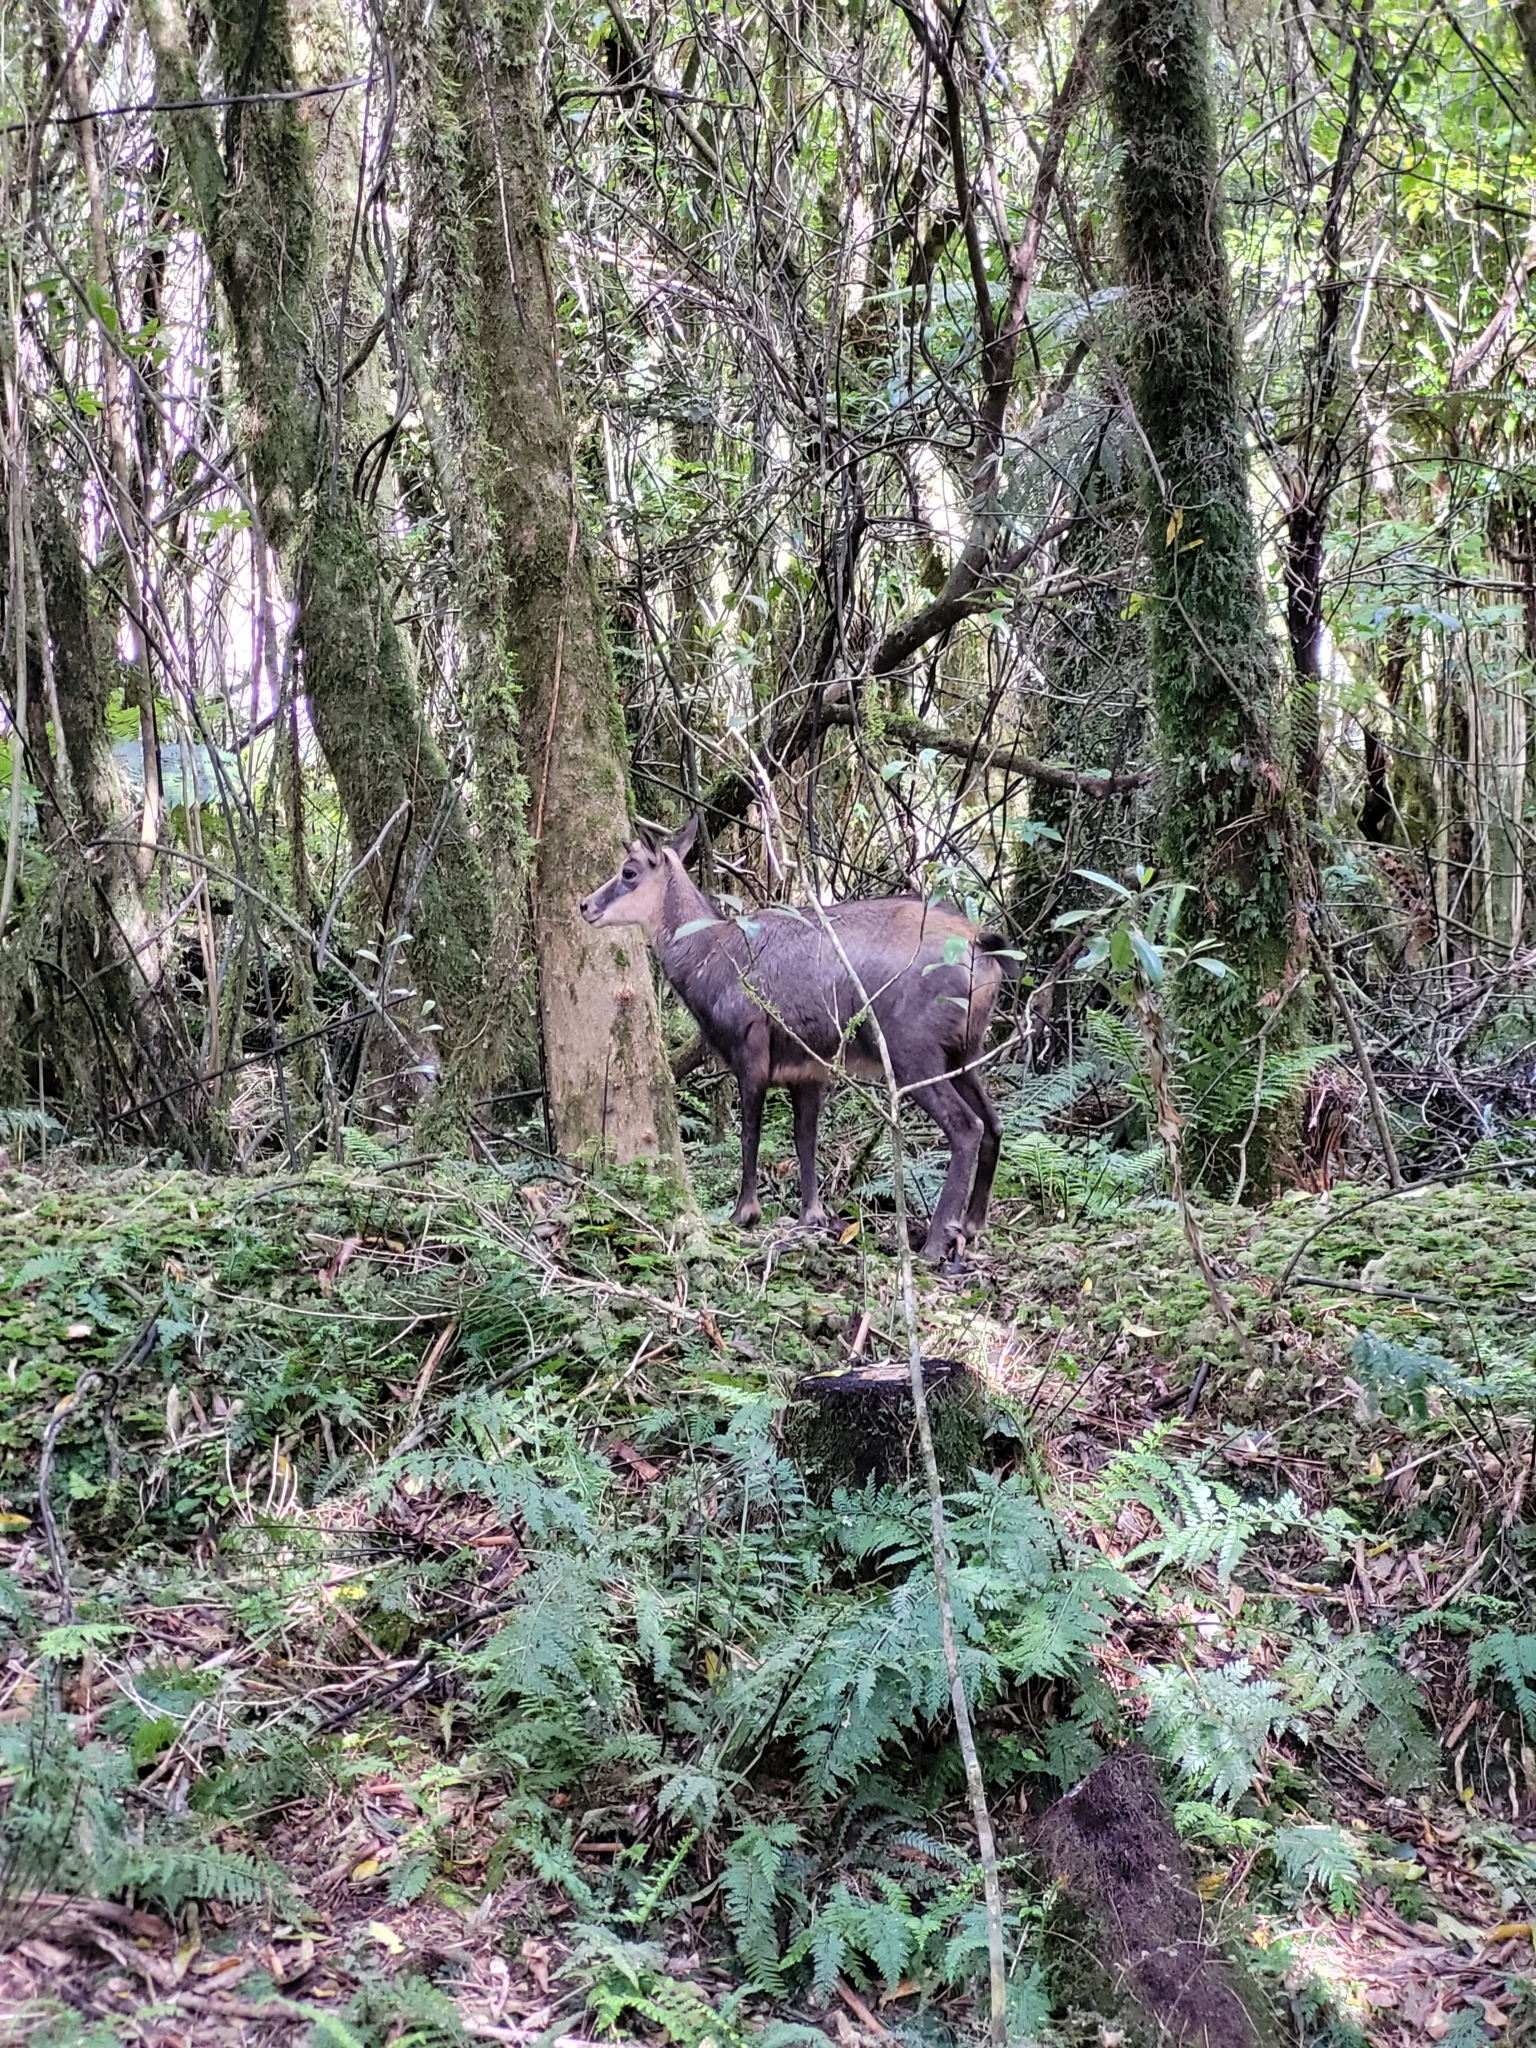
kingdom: Animalia
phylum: Chordata
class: Mammalia
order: Artiodactyla
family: Bovidae
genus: Rupicapra
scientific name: Rupicapra rupicapra
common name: Chamois
